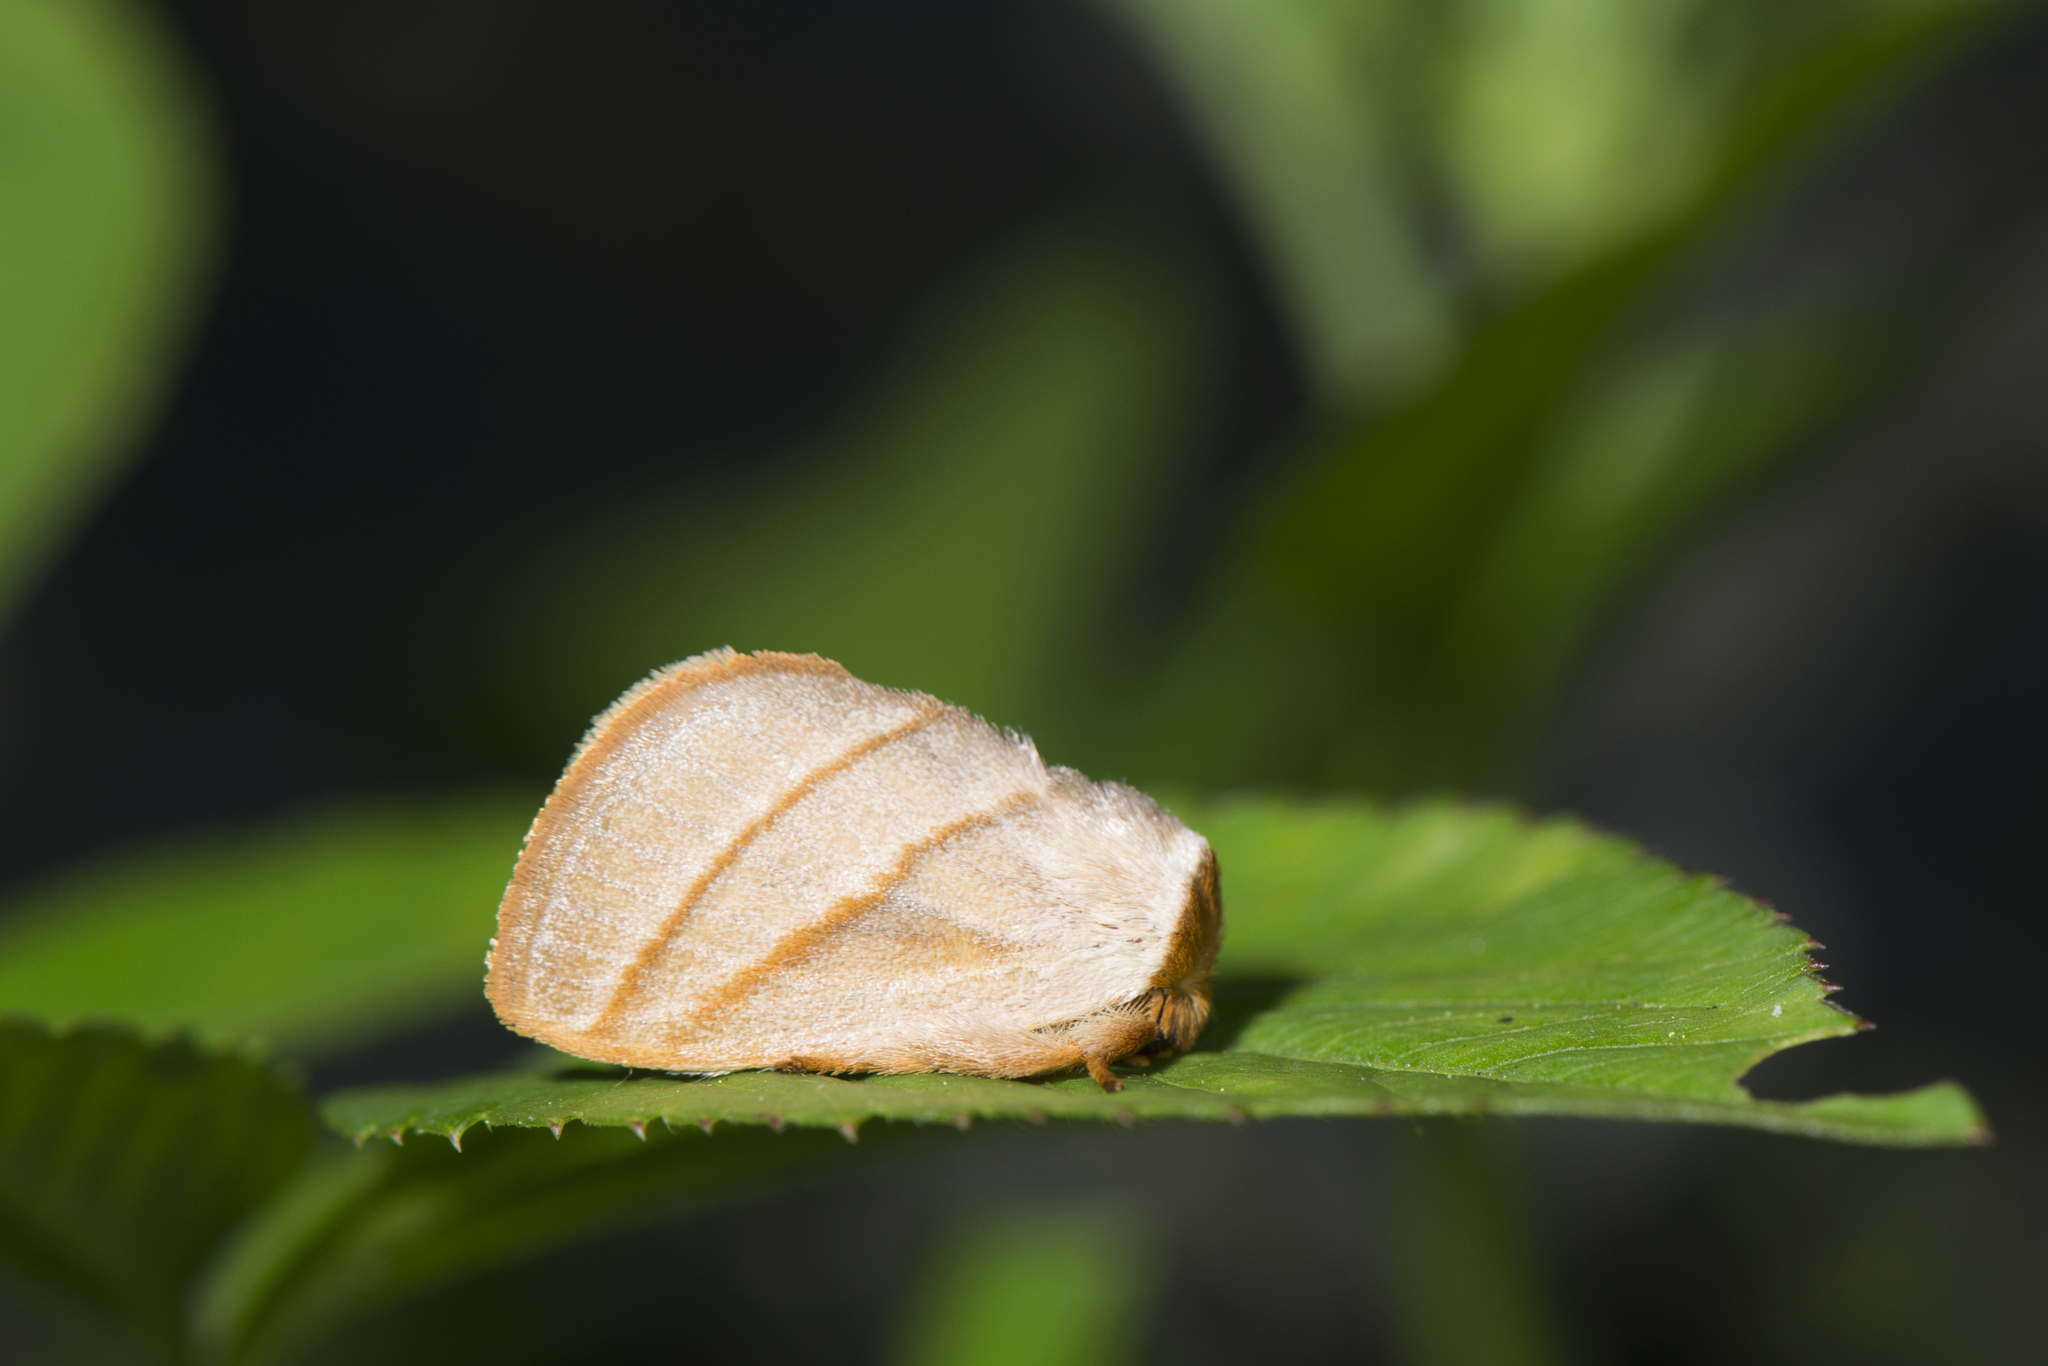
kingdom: Animalia
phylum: Arthropoda
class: Insecta
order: Lepidoptera
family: Limacodidae
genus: Cania
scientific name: Cania heppneri
